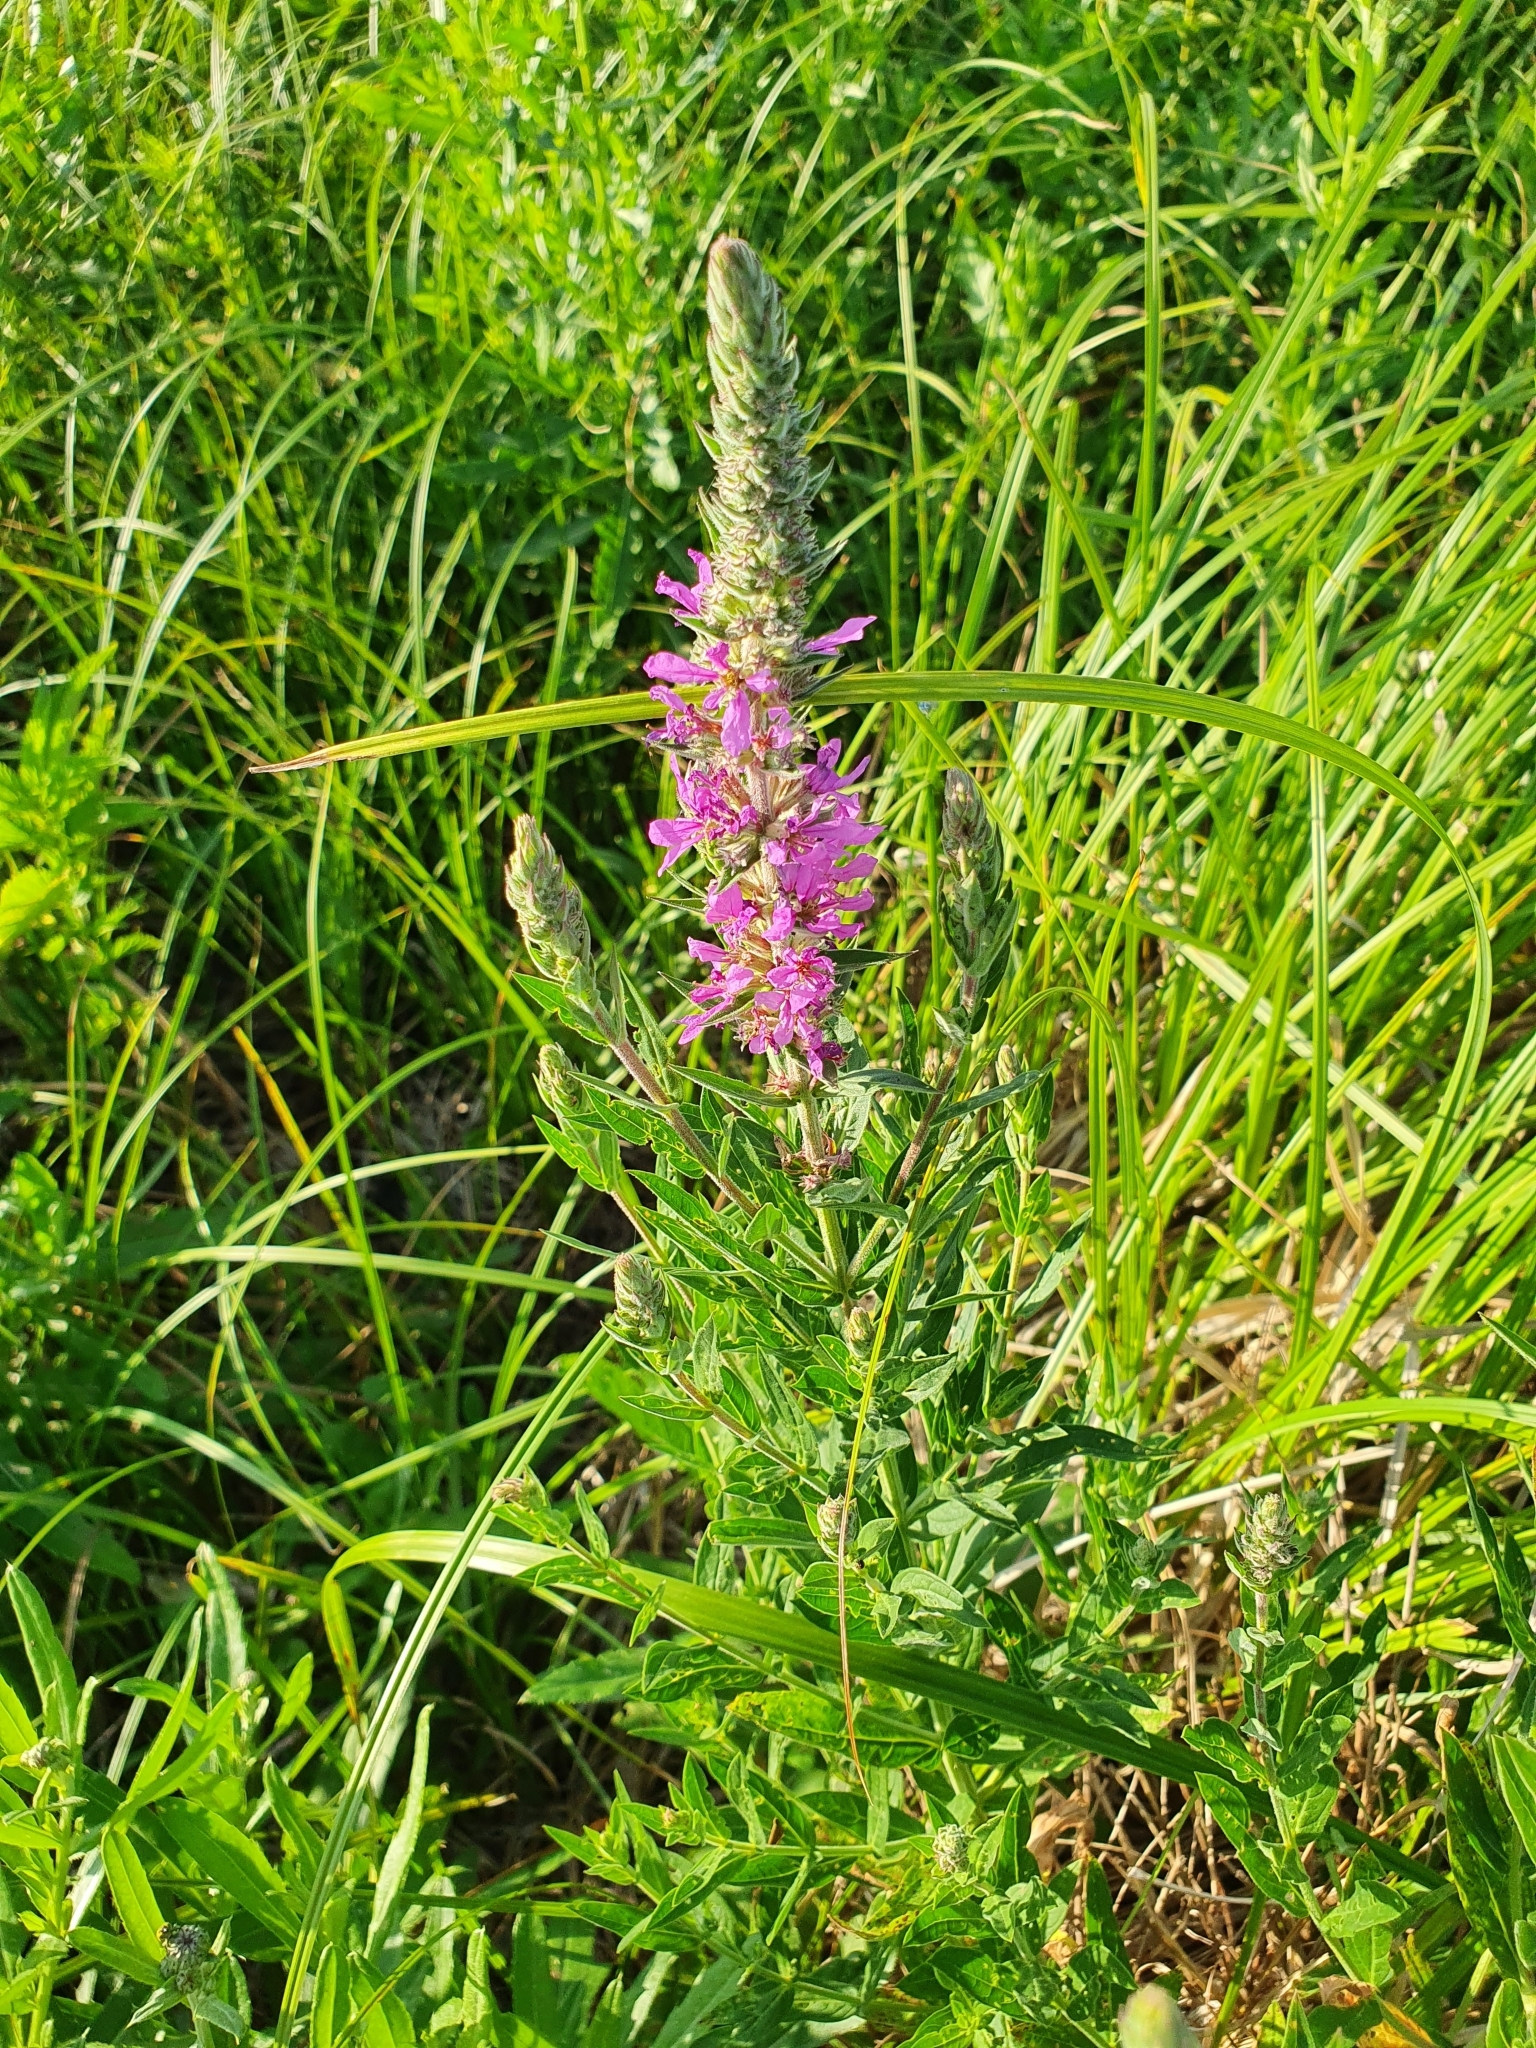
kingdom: Plantae
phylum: Tracheophyta
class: Magnoliopsida
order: Myrtales
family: Lythraceae
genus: Lythrum
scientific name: Lythrum salicaria
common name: Purple loosestrife
